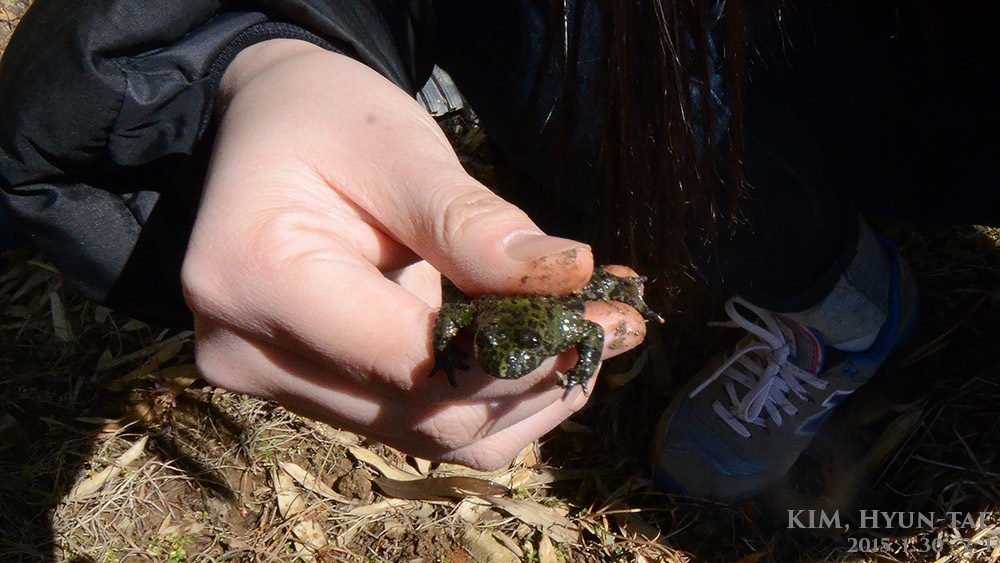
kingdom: Animalia
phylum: Chordata
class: Amphibia
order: Anura
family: Bombinatoridae
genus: Bombina
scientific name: Bombina orientalis
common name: Oriental firebelly toad
